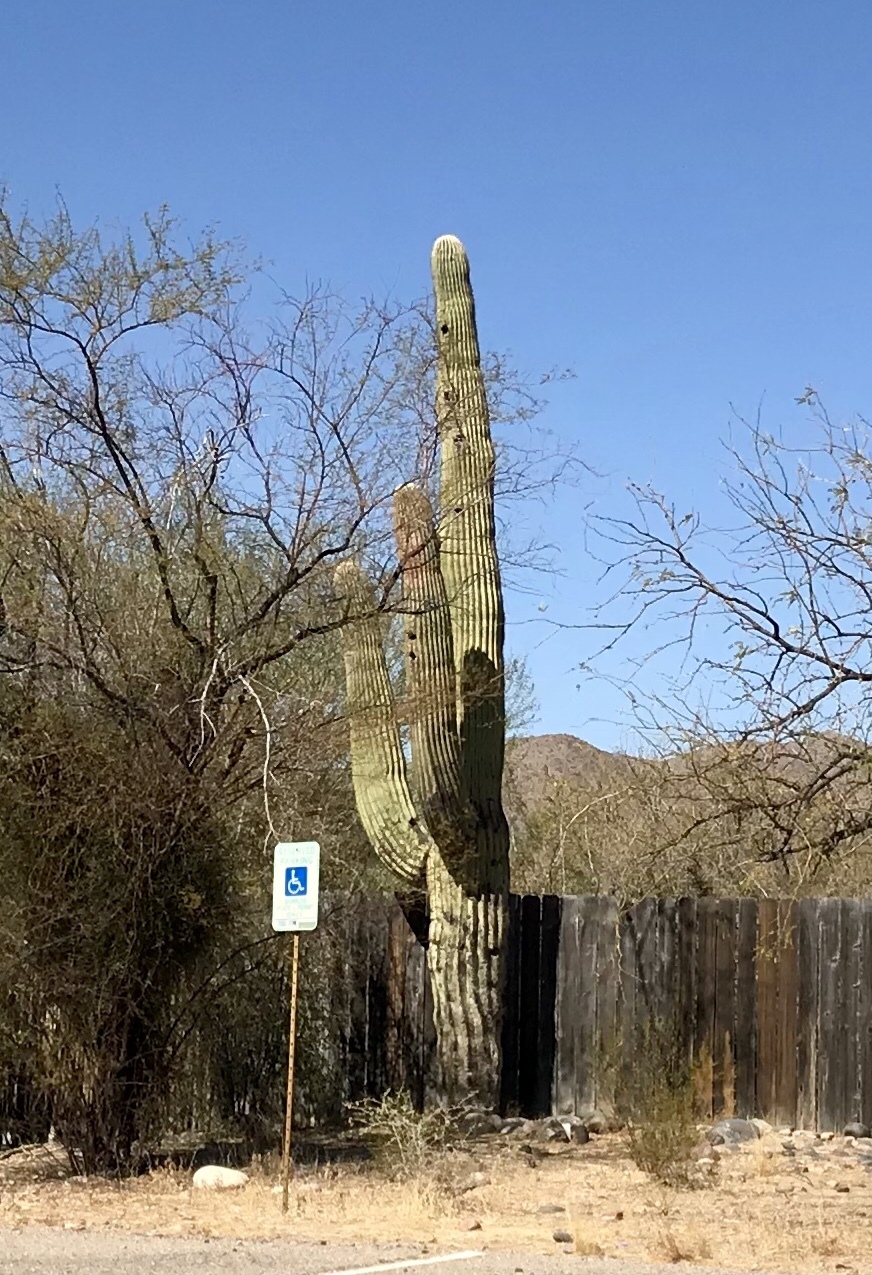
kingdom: Plantae
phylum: Tracheophyta
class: Magnoliopsida
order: Caryophyllales
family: Cactaceae
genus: Carnegiea
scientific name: Carnegiea gigantea
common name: Saguaro
